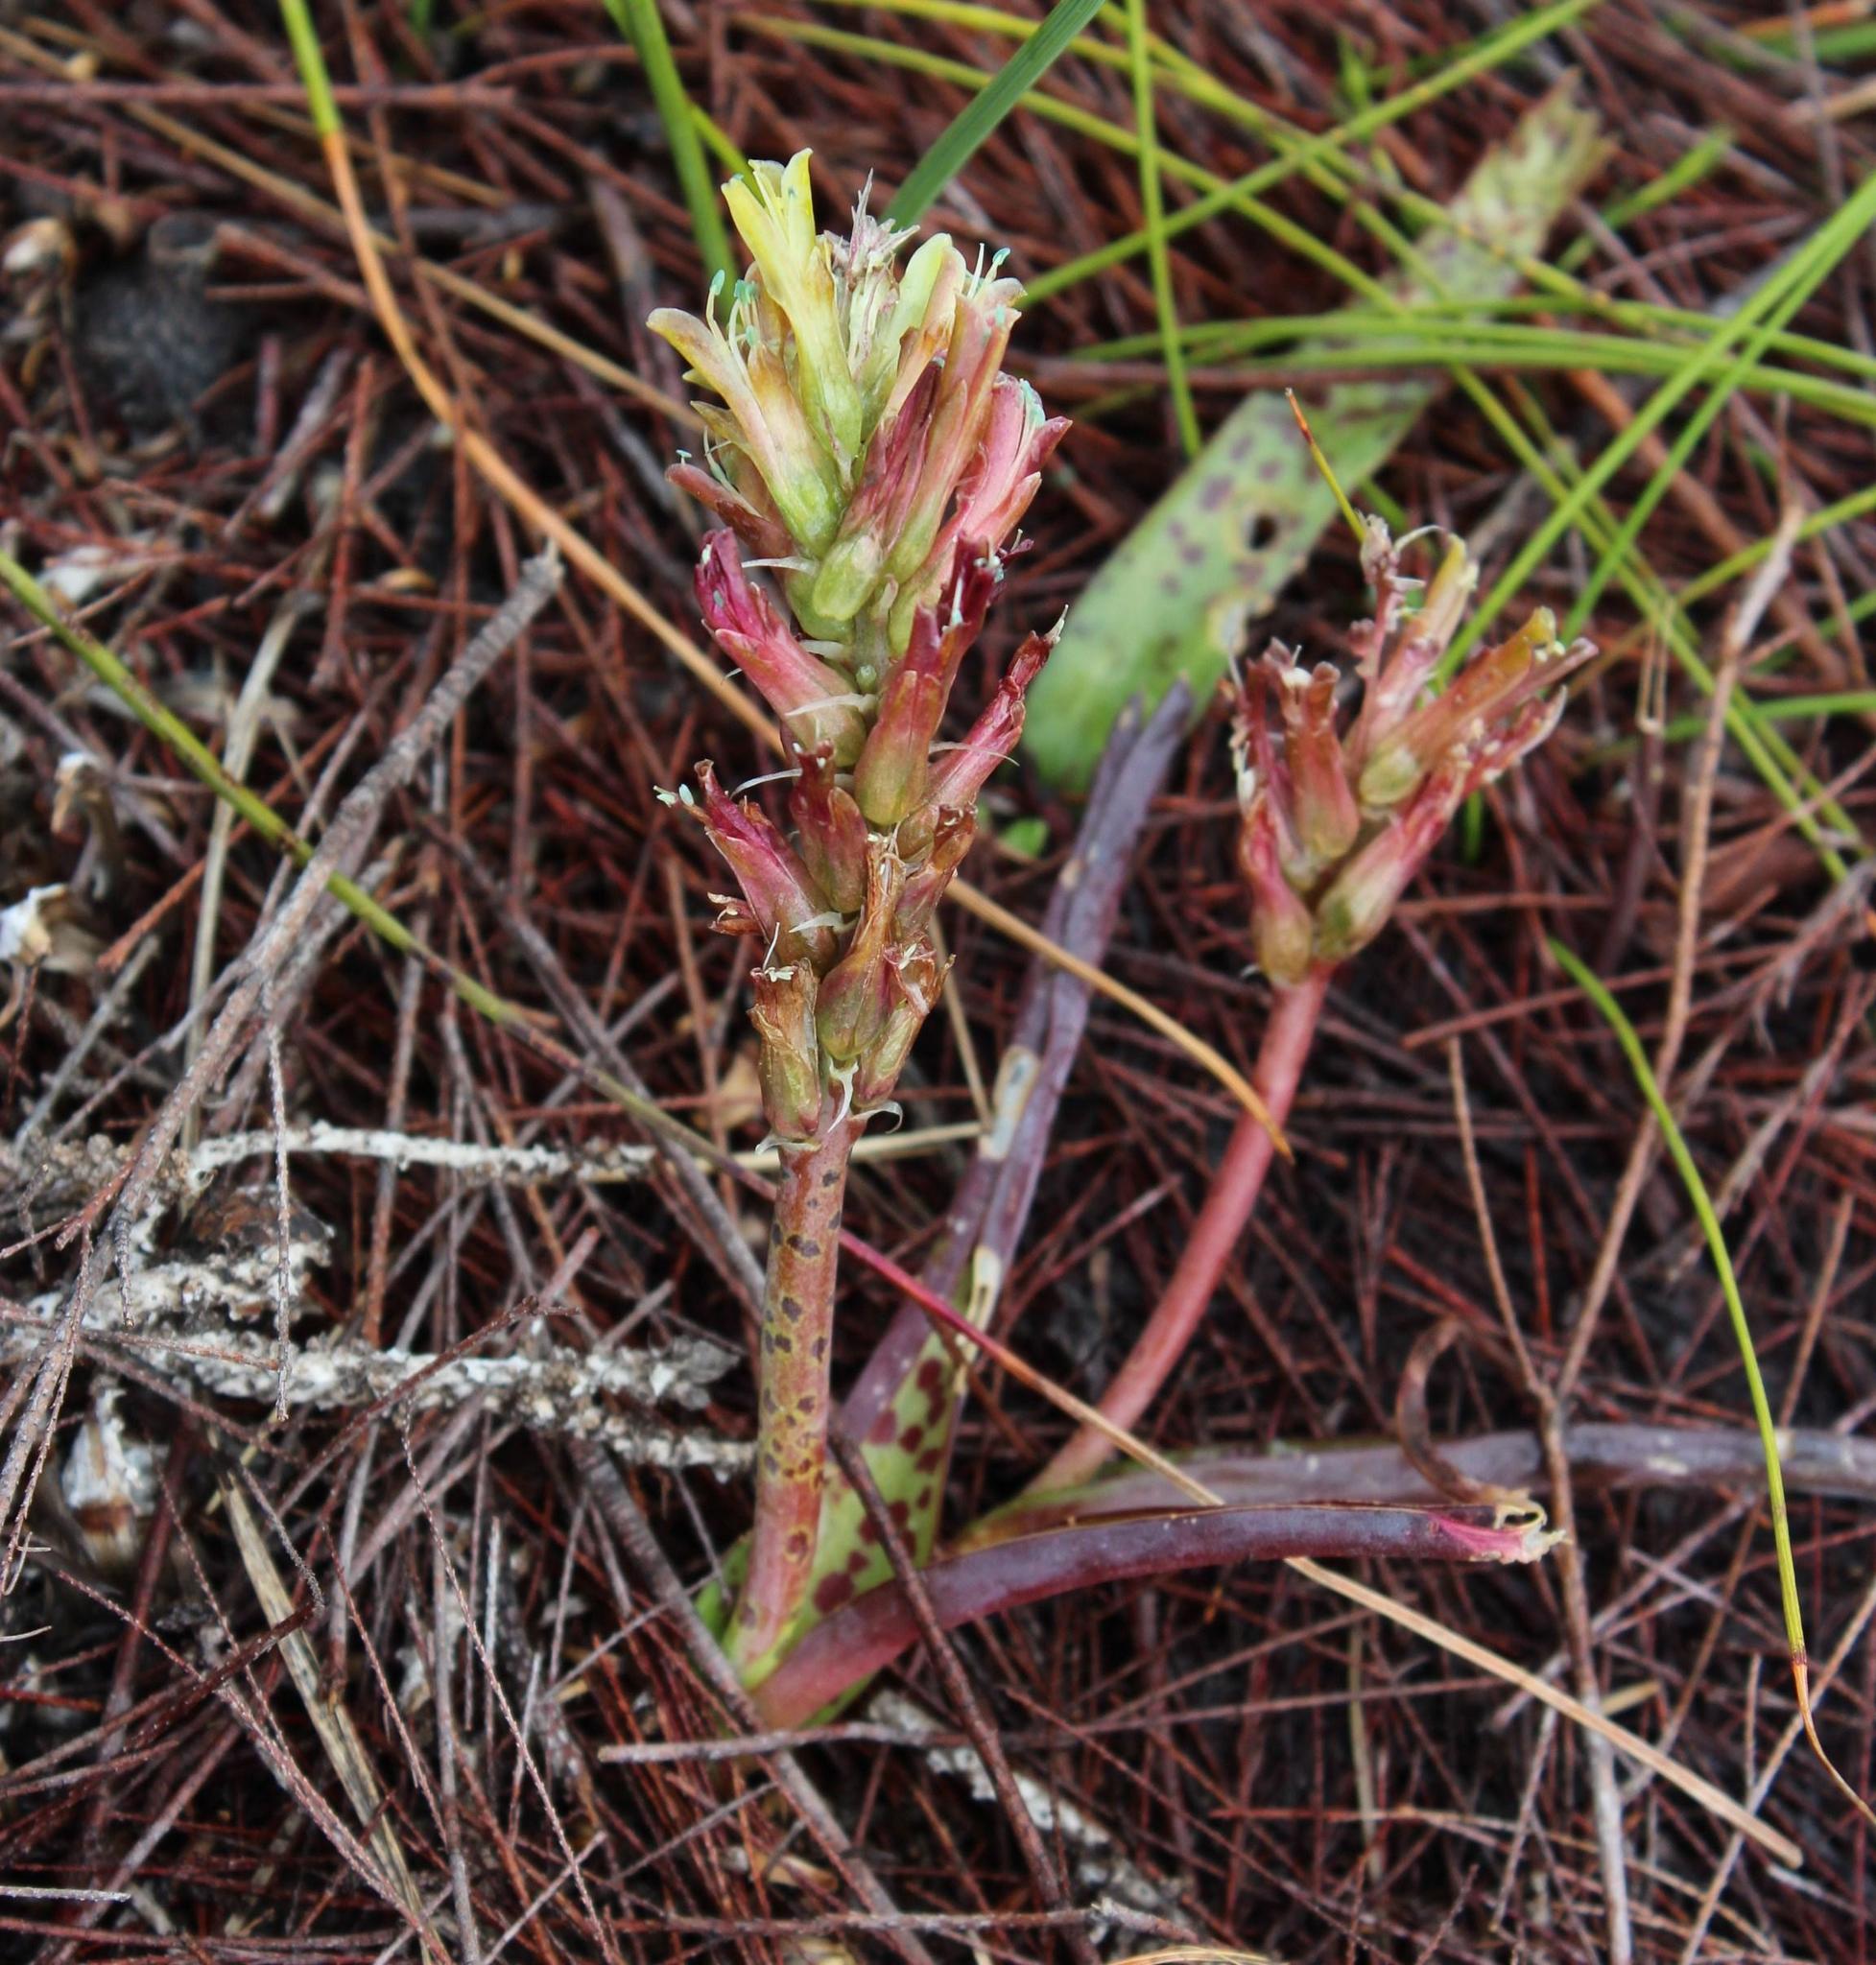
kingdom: Plantae
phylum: Tracheophyta
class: Liliopsida
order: Asparagales
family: Asparagaceae
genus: Lachenalia
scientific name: Lachenalia orchioides
